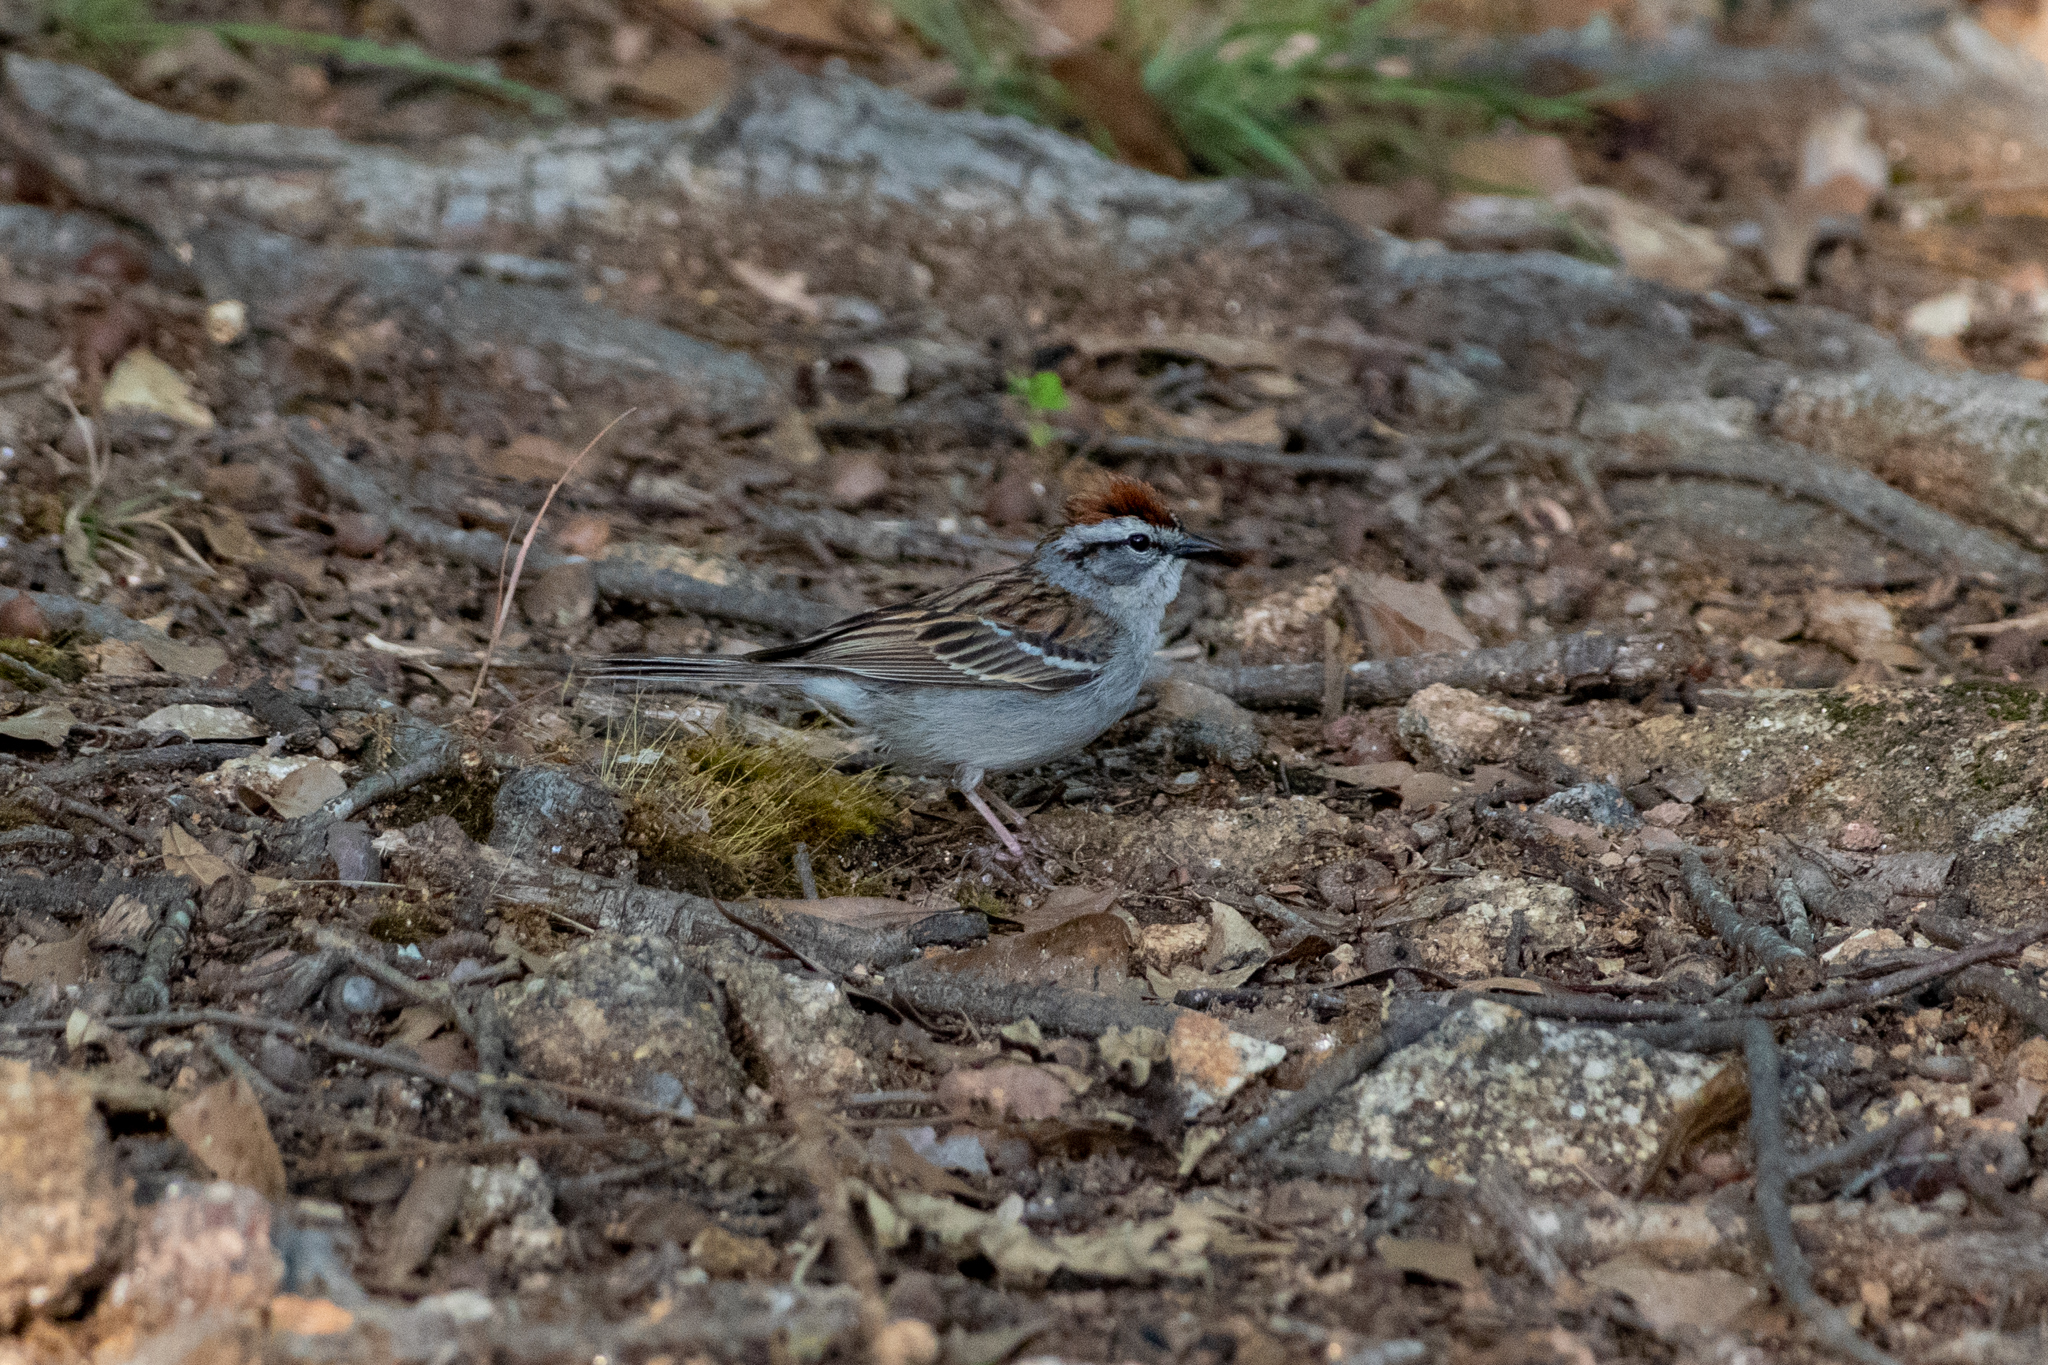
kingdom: Animalia
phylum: Chordata
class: Aves
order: Passeriformes
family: Passerellidae
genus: Spizella
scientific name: Spizella passerina
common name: Chipping sparrow
